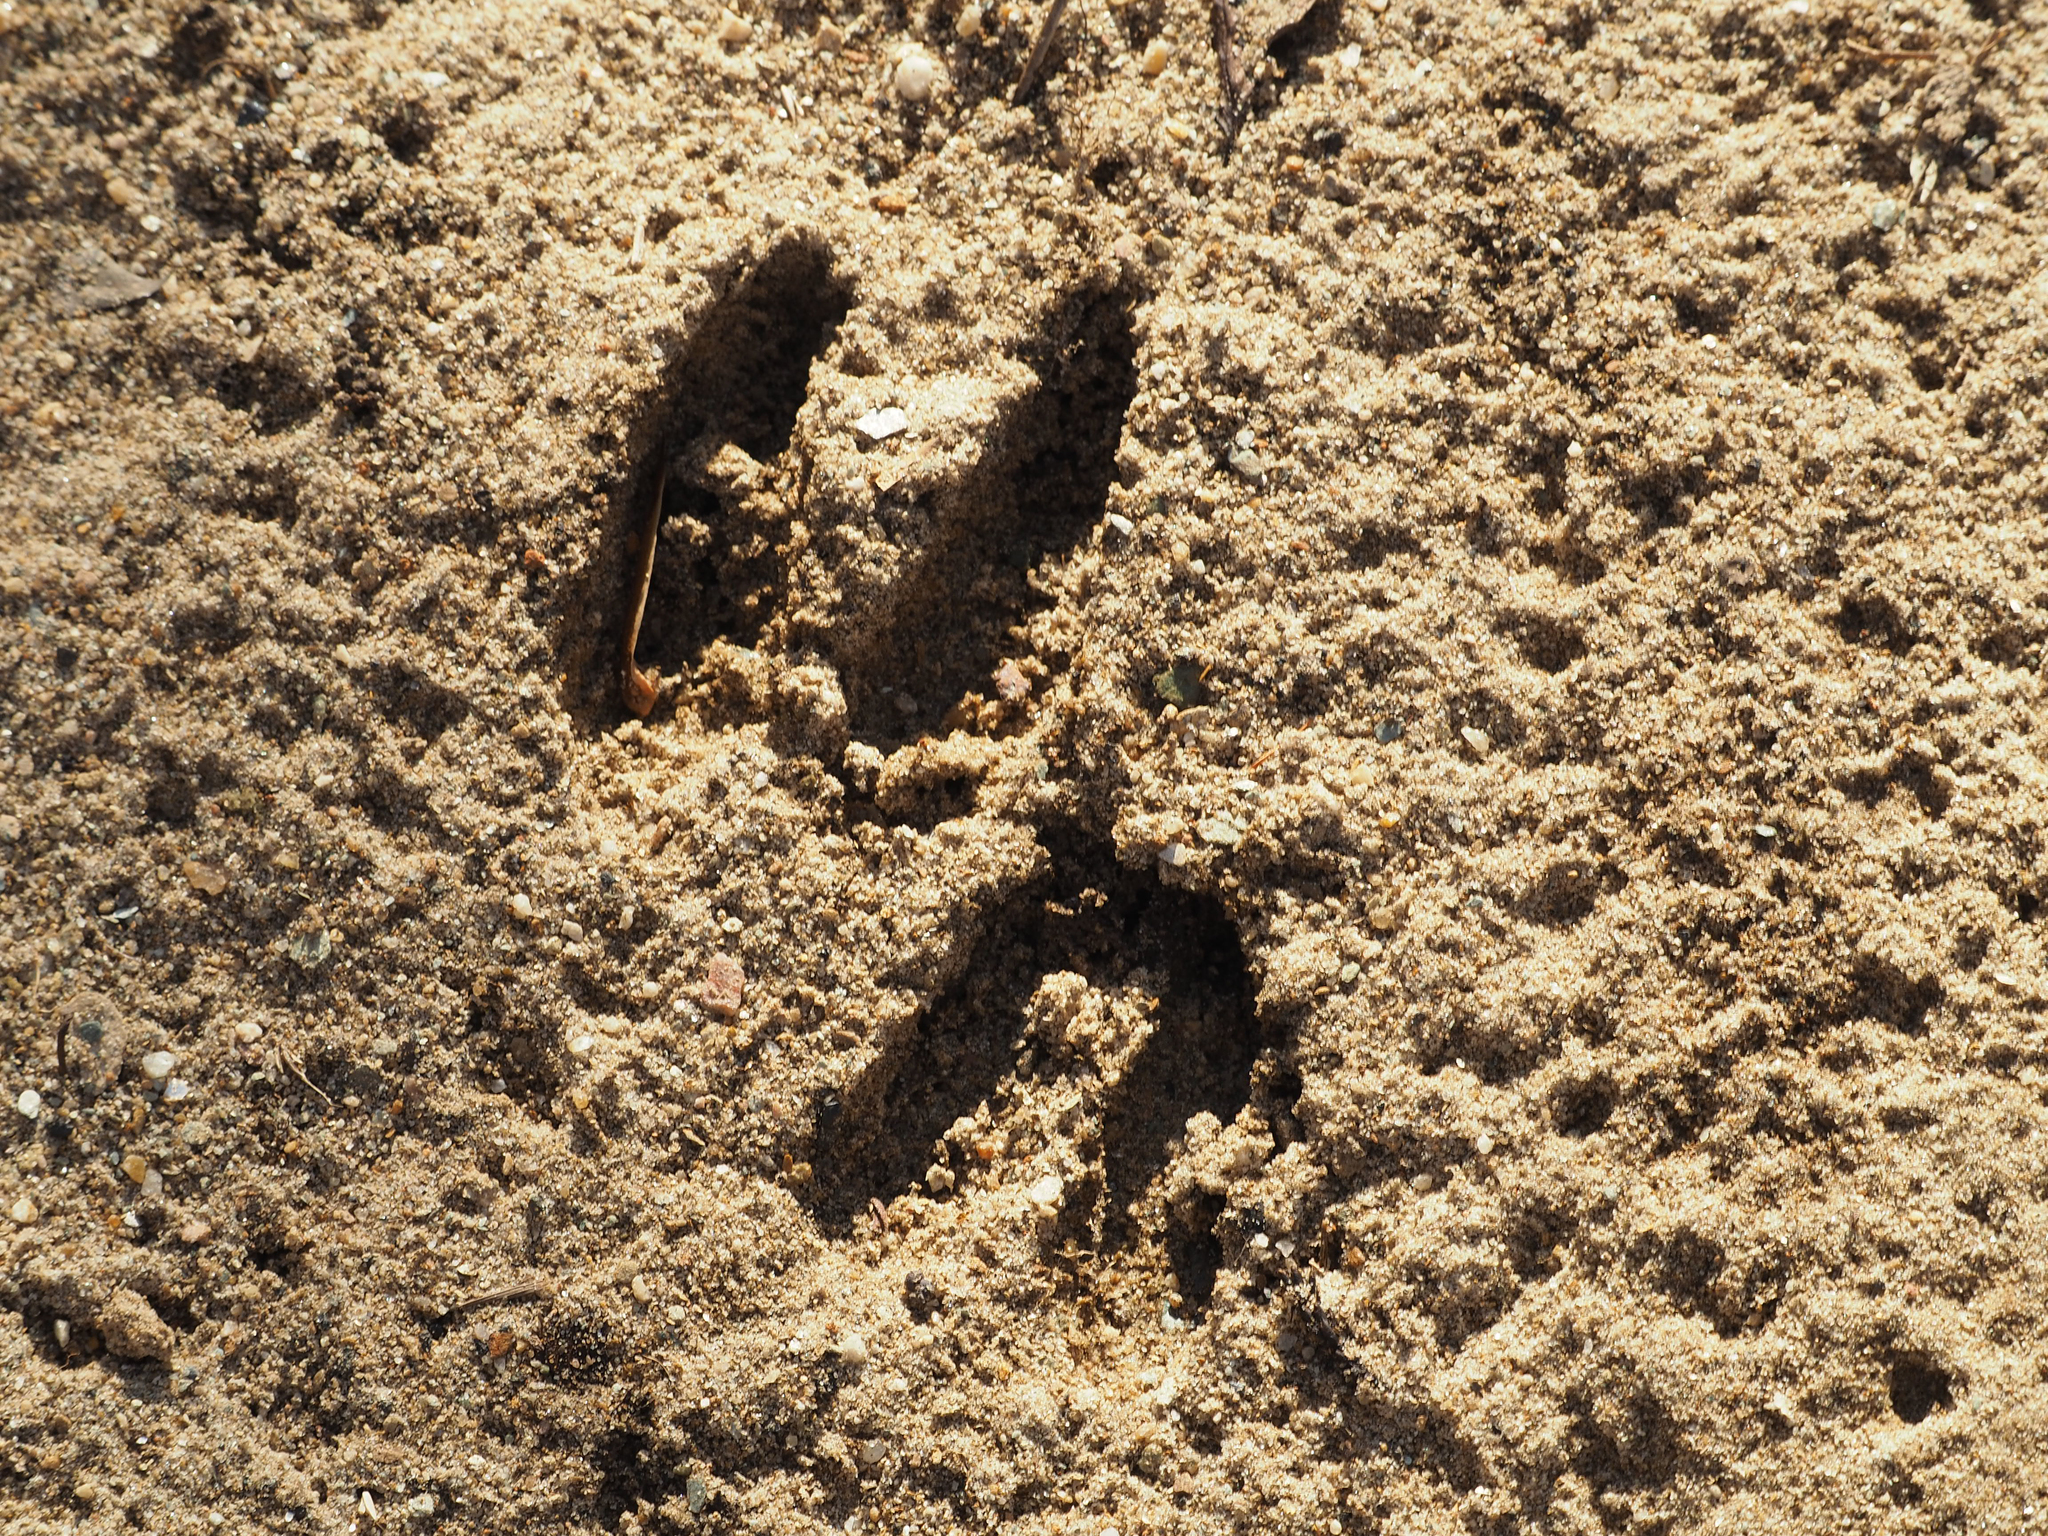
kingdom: Animalia
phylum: Chordata
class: Mammalia
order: Artiodactyla
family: Cervidae
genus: Odocoileus
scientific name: Odocoileus virginianus
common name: White-tailed deer
